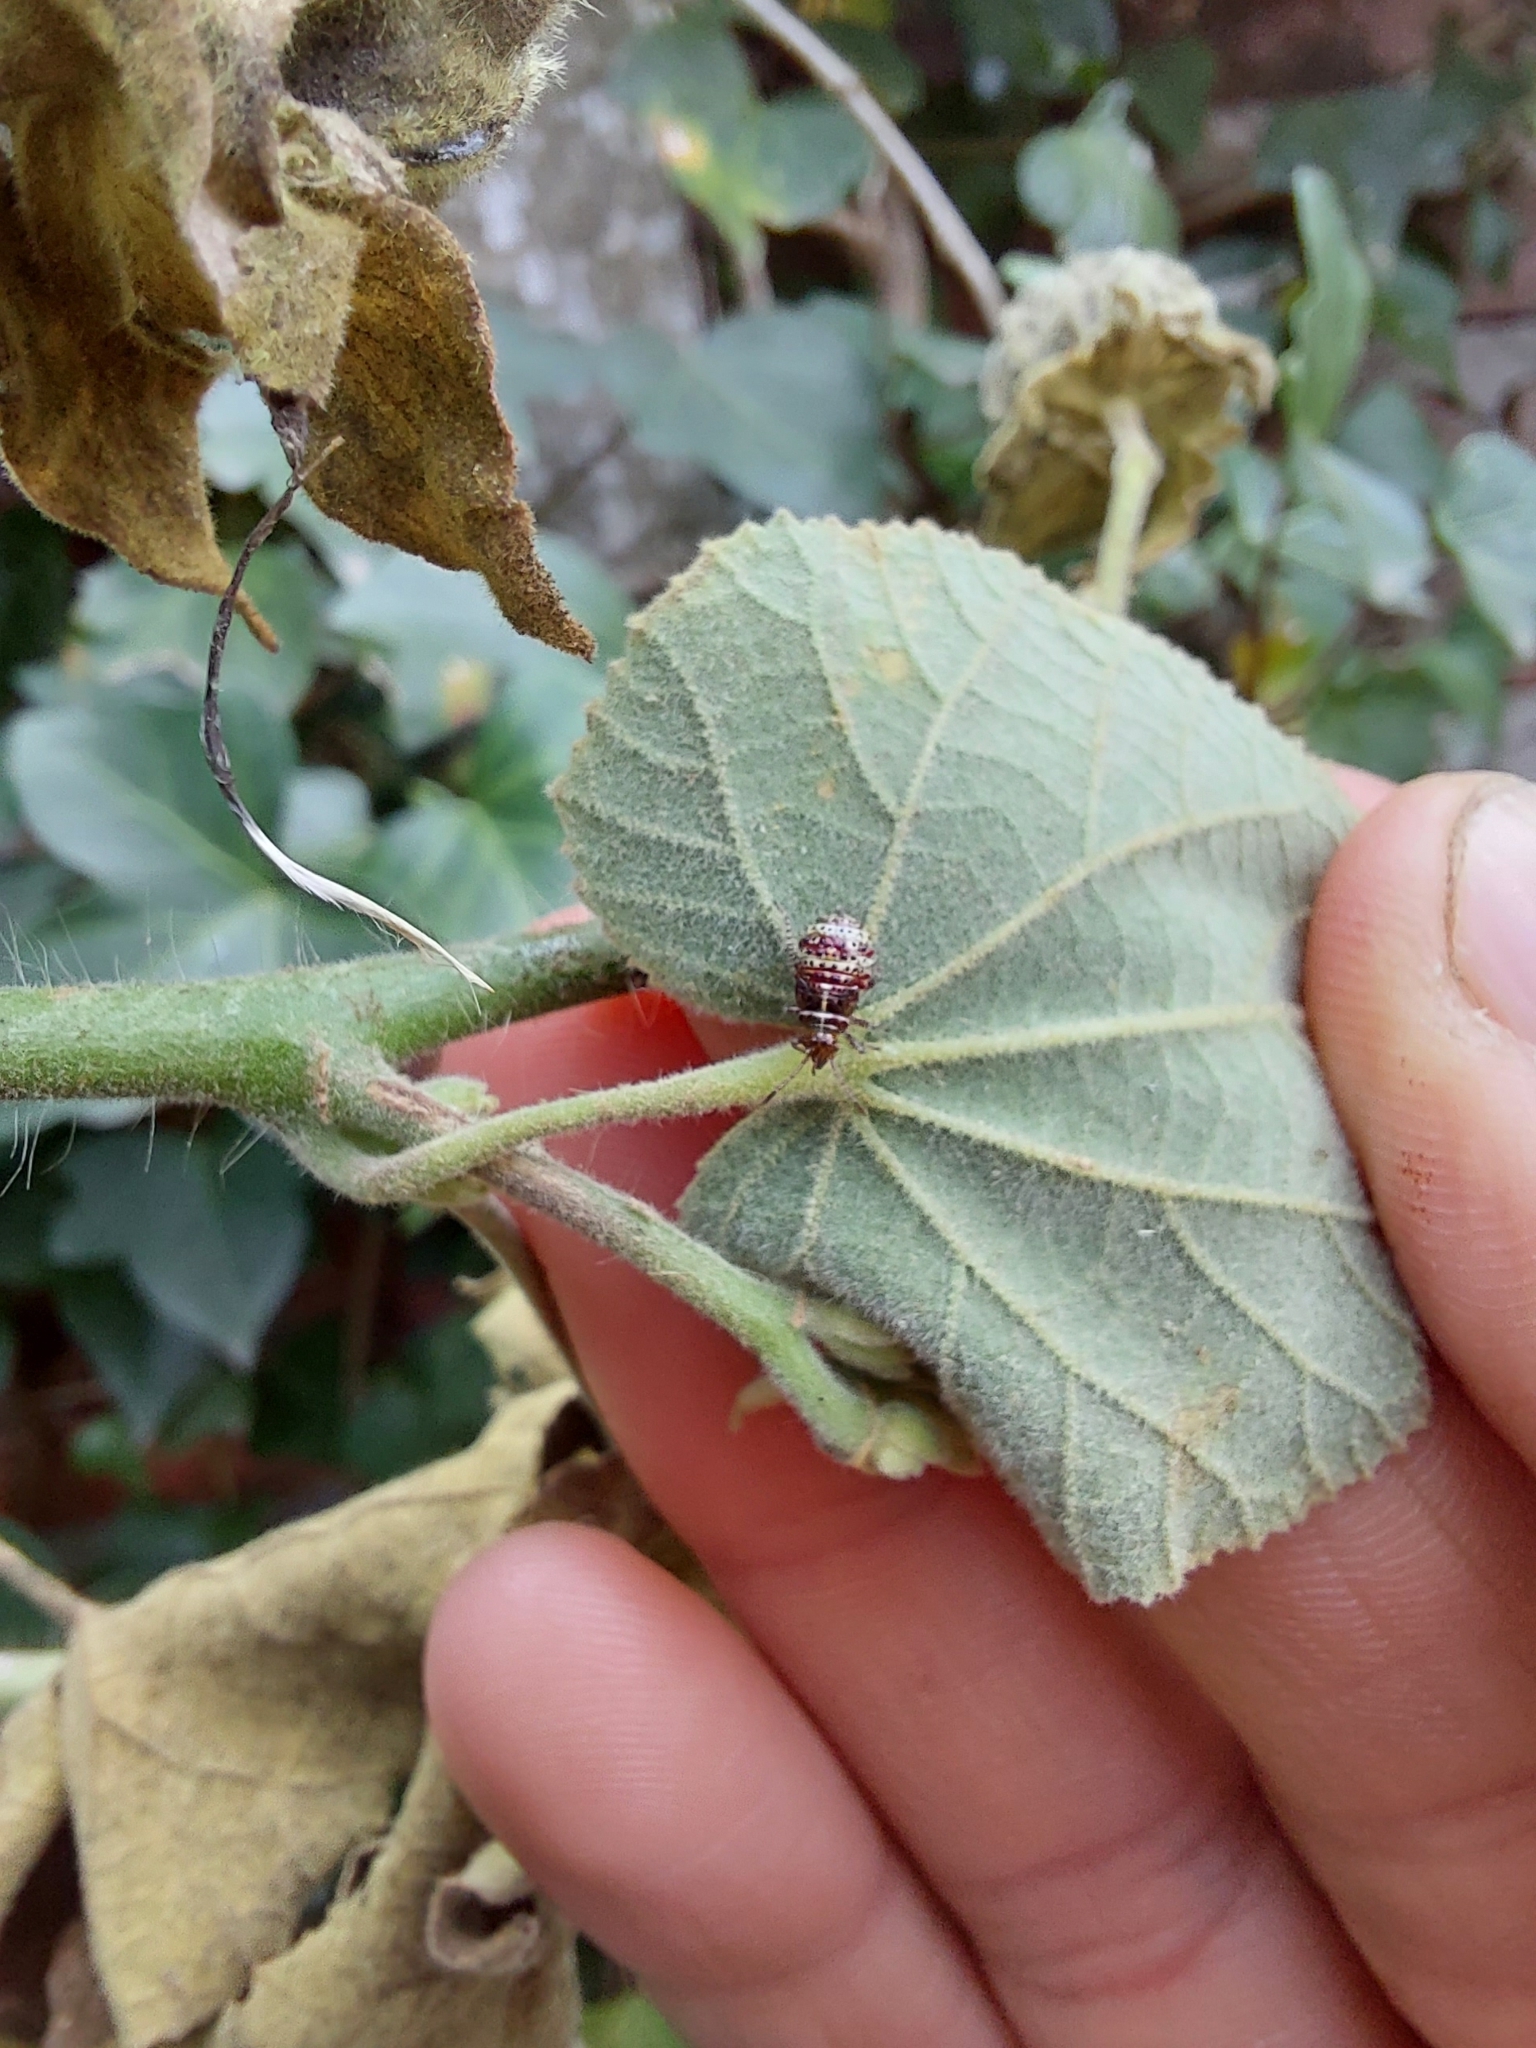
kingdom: Animalia
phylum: Arthropoda
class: Insecta
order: Hemiptera
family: Rhopalidae
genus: Niesthrea
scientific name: Niesthrea
